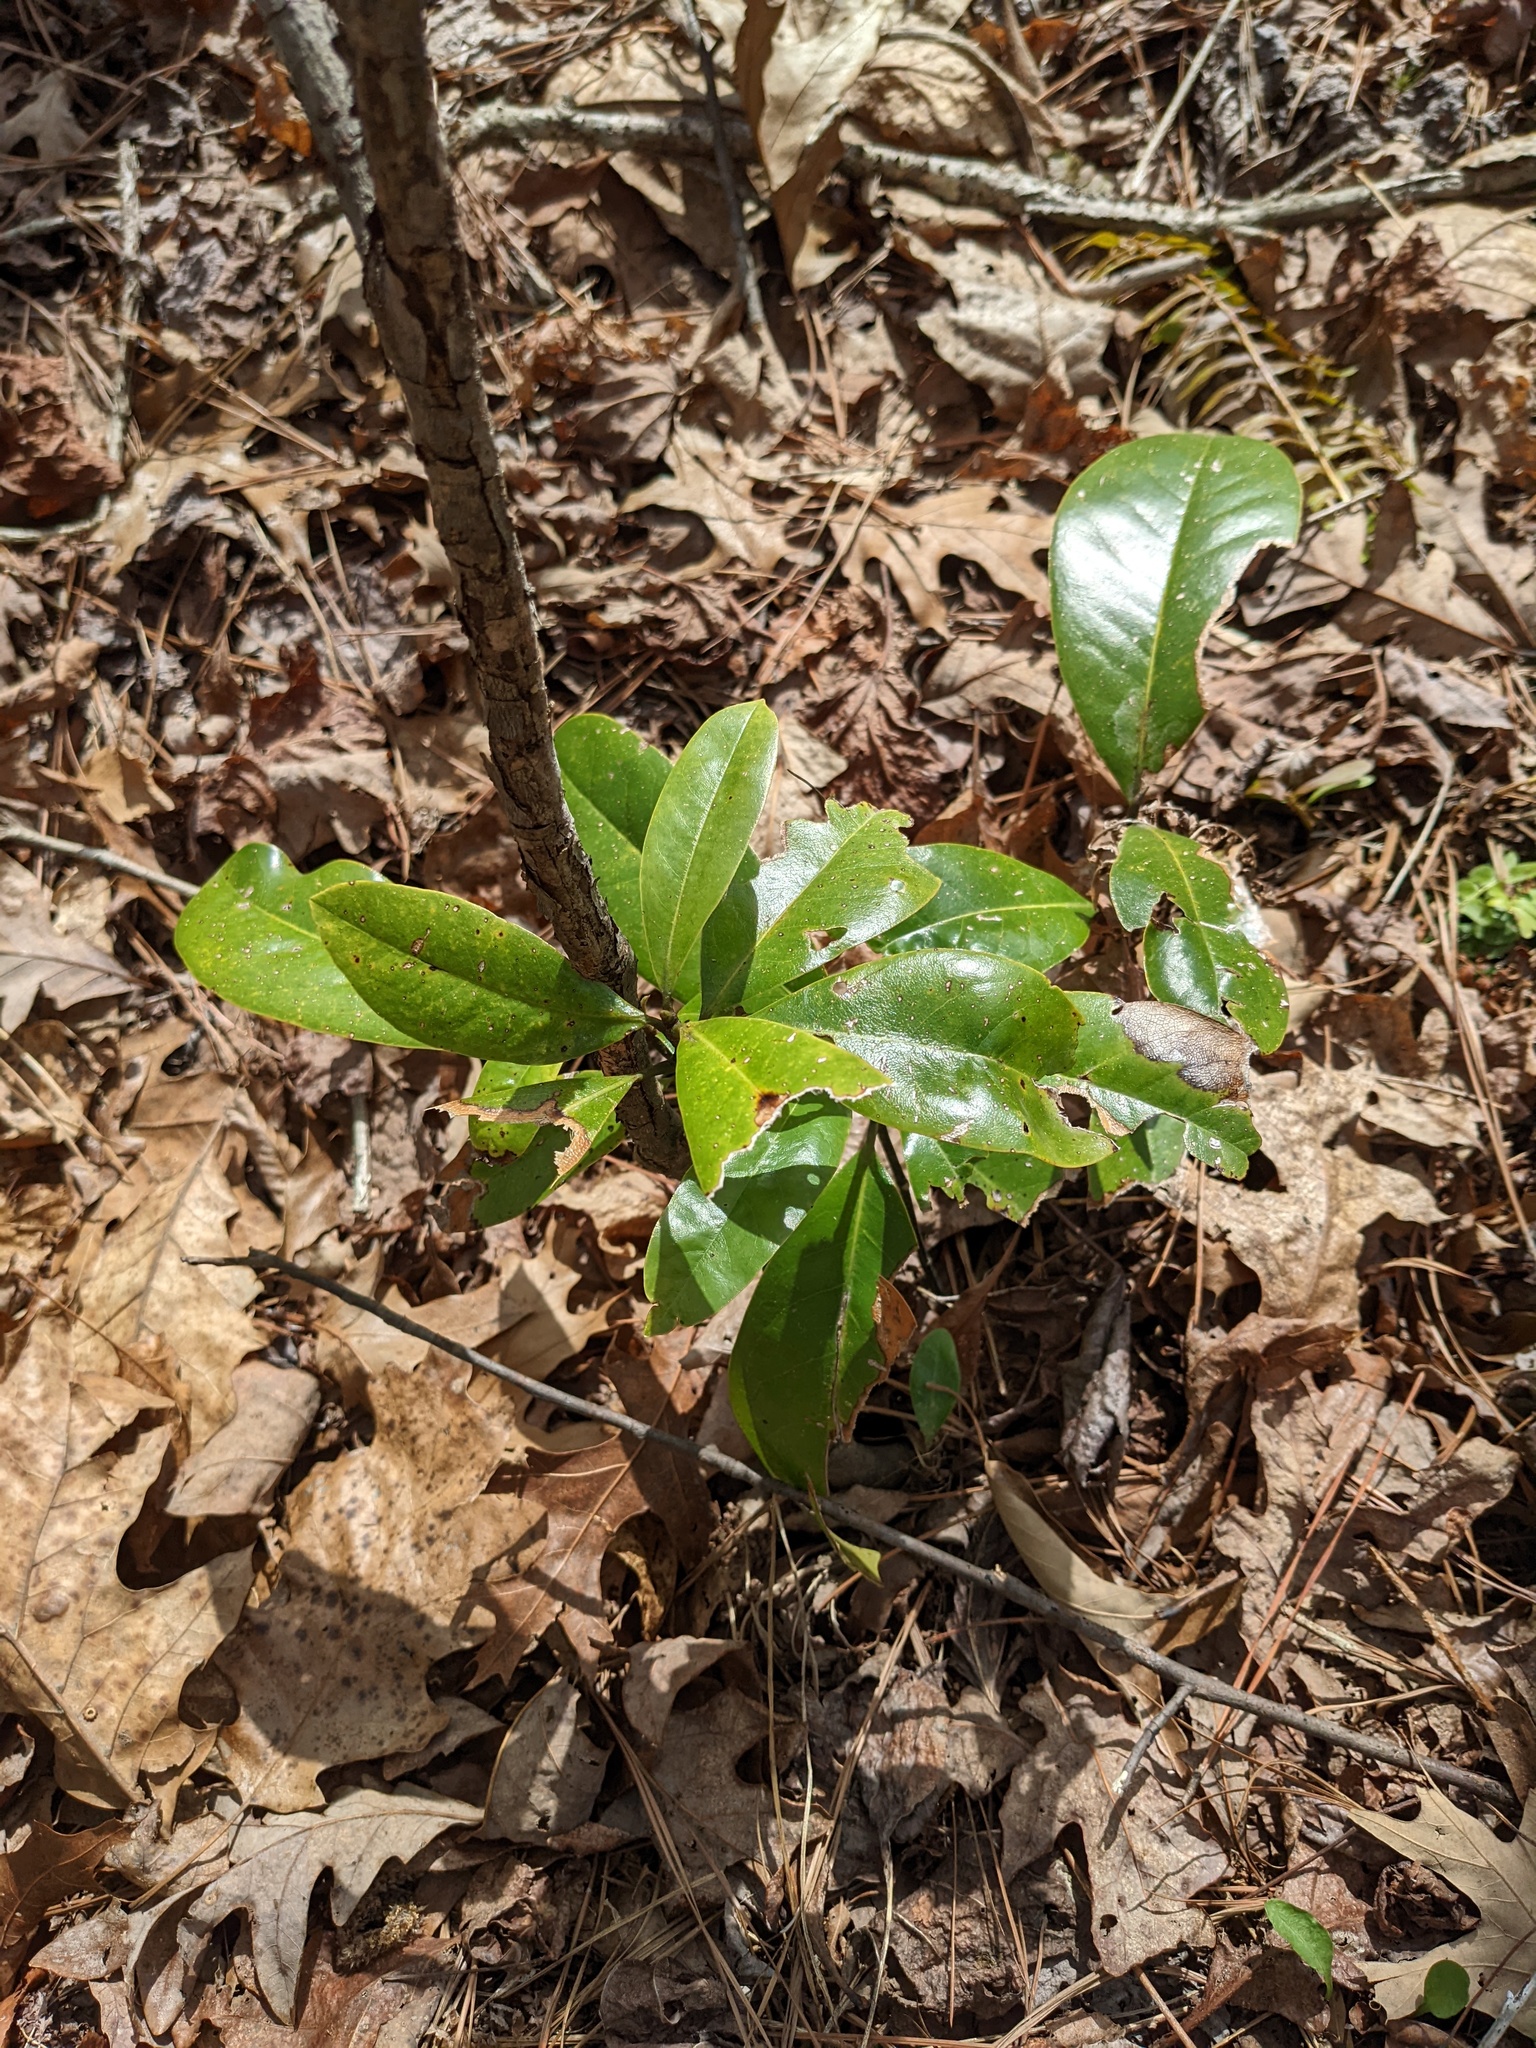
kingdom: Plantae
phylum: Tracheophyta
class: Magnoliopsida
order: Magnoliales
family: Magnoliaceae
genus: Magnolia
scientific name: Magnolia grandiflora
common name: Southern magnolia
